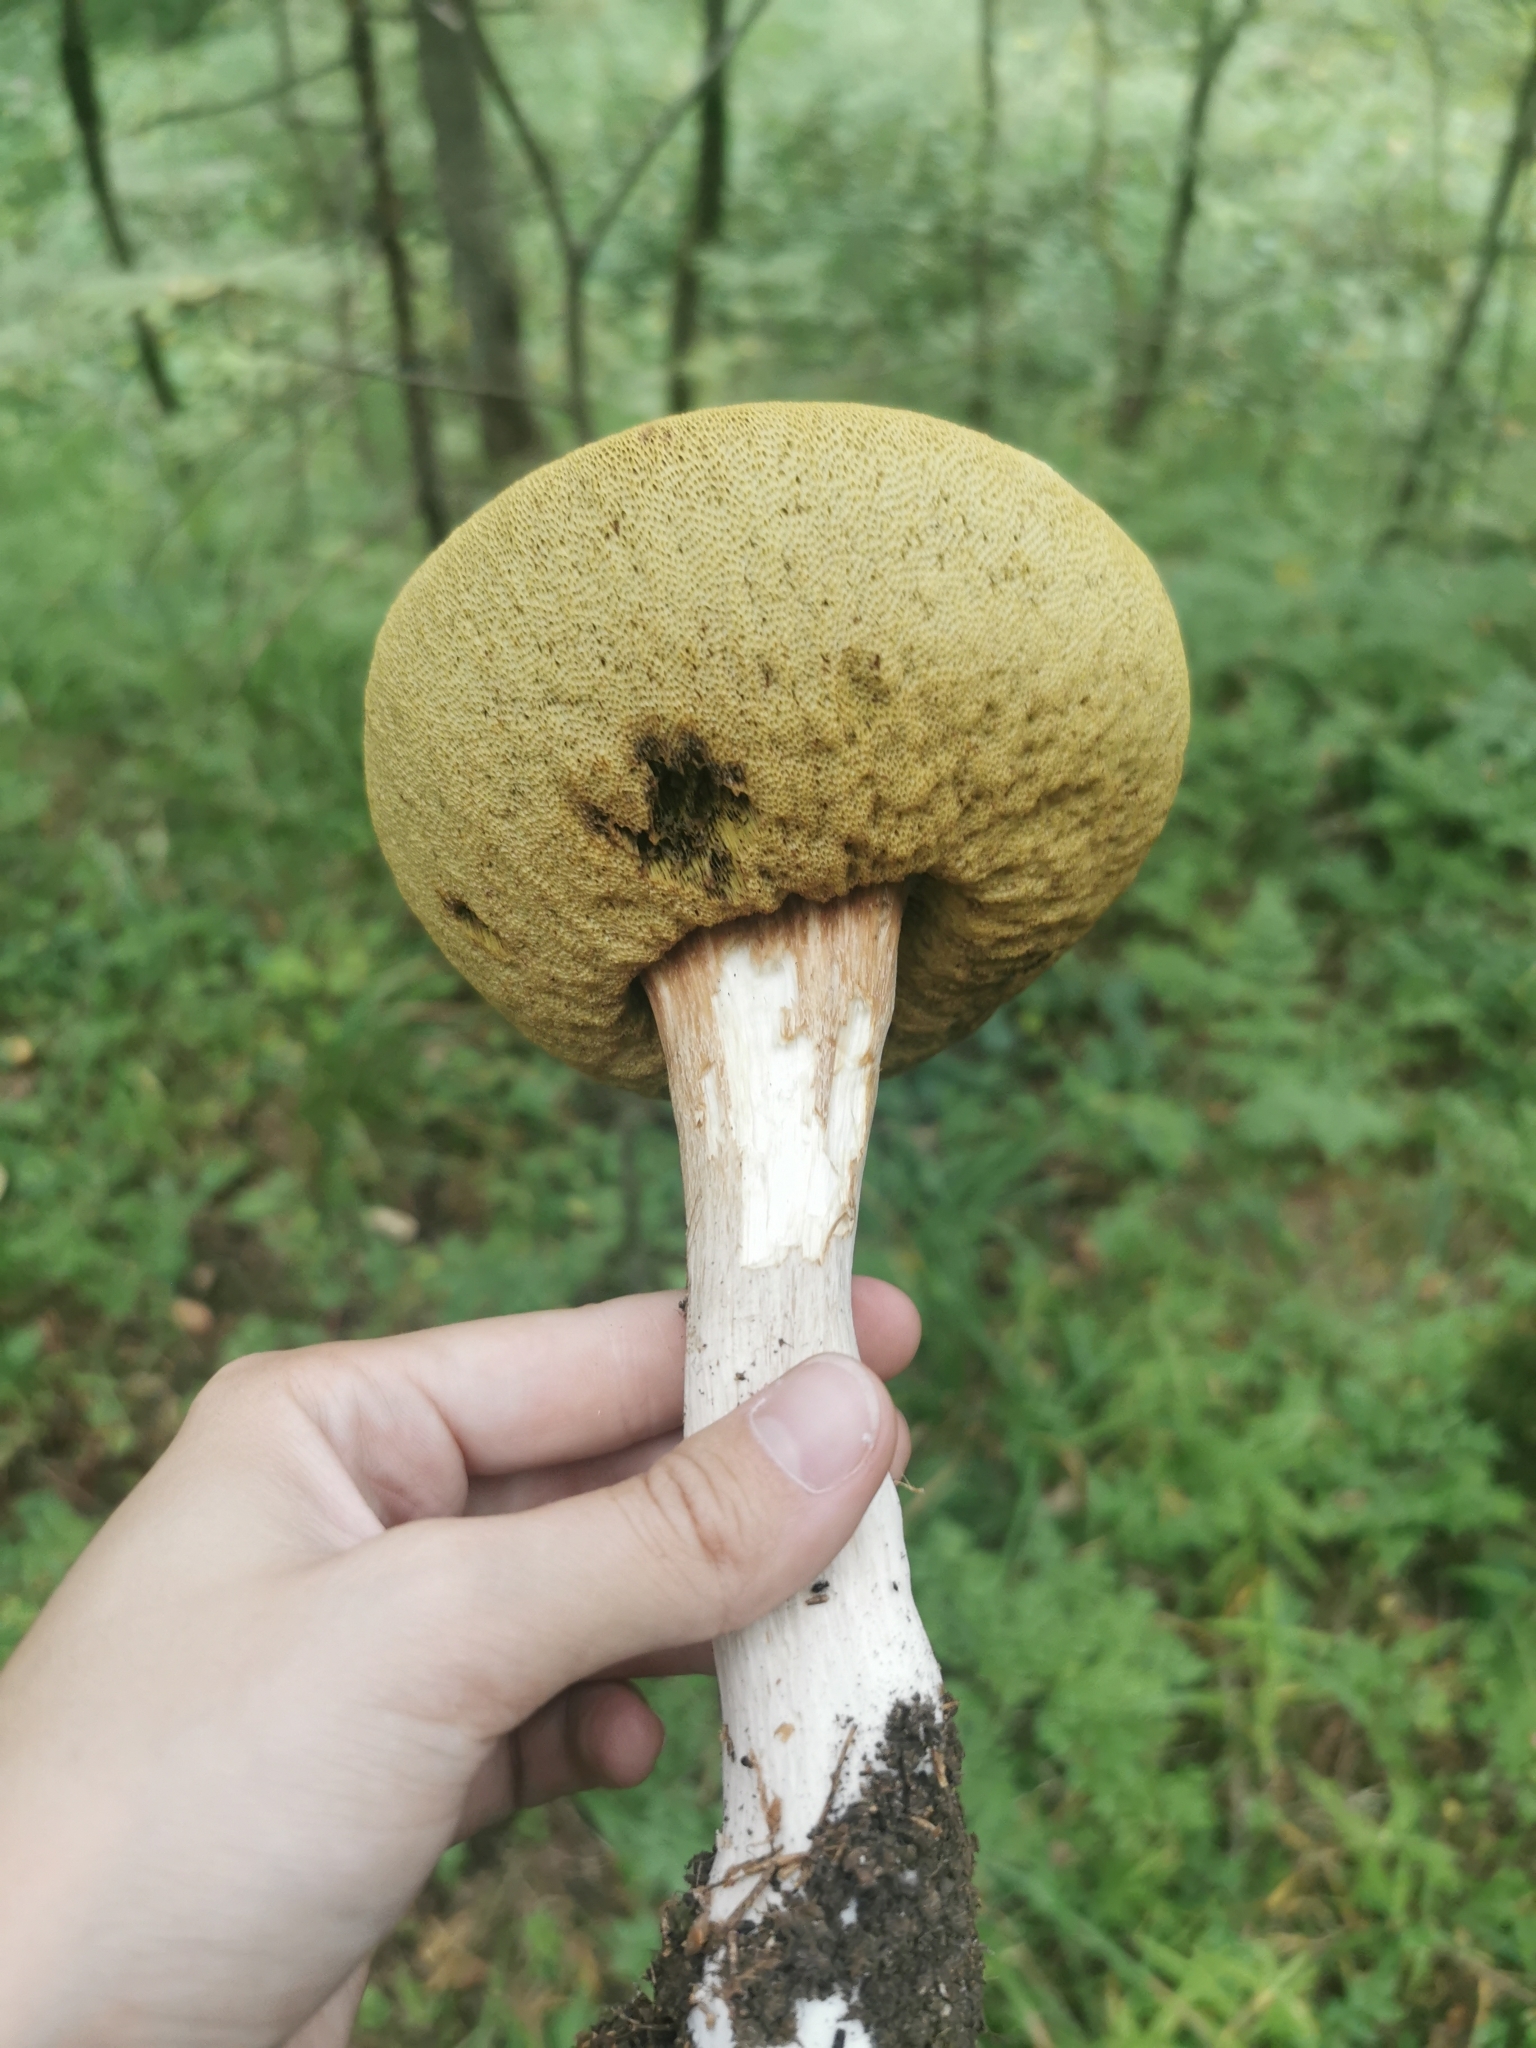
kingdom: Fungi
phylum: Basidiomycota
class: Agaricomycetes
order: Boletales
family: Boletaceae
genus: Boletus
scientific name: Boletus edulis
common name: Cep
